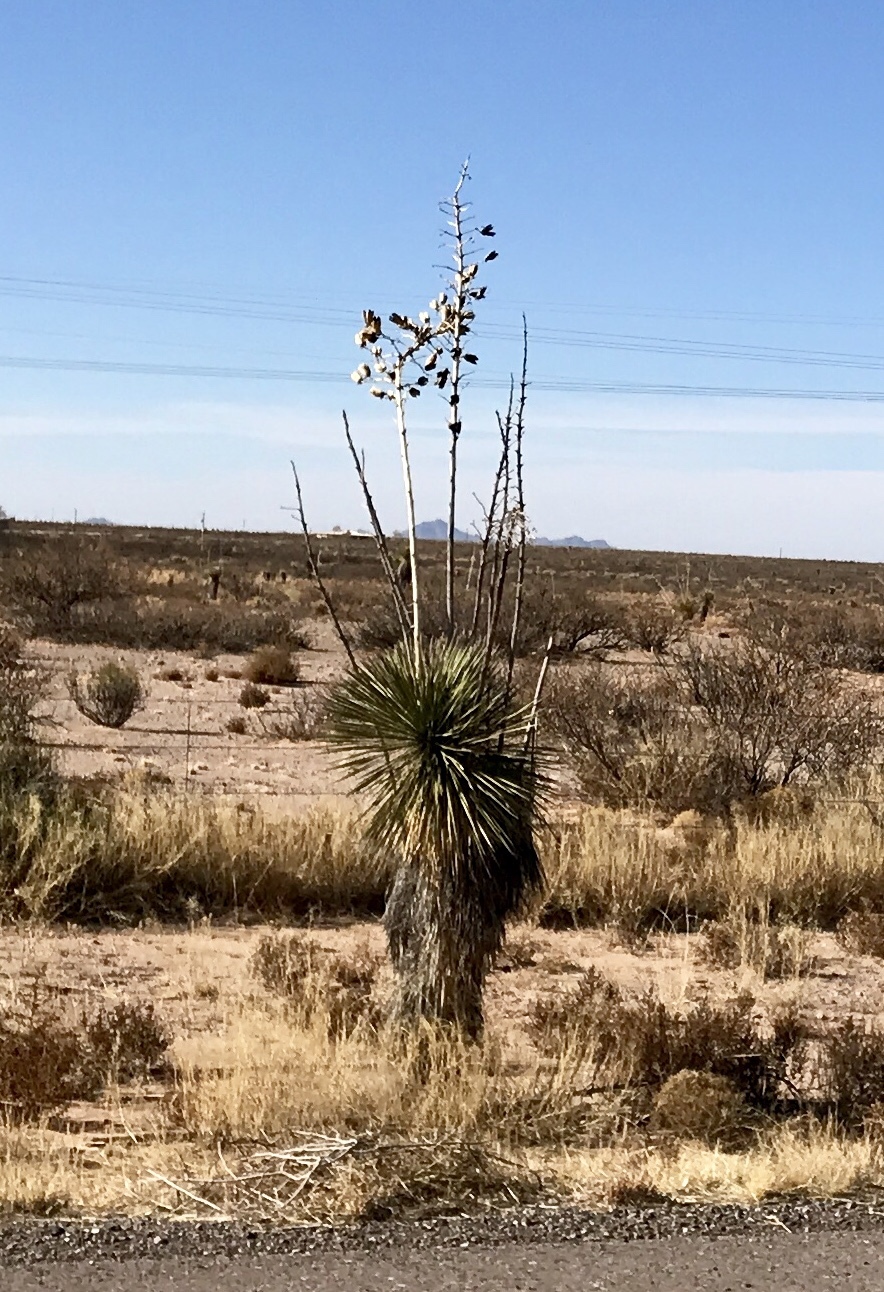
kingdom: Plantae
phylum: Tracheophyta
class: Liliopsida
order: Asparagales
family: Asparagaceae
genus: Yucca
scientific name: Yucca elata
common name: Palmella
